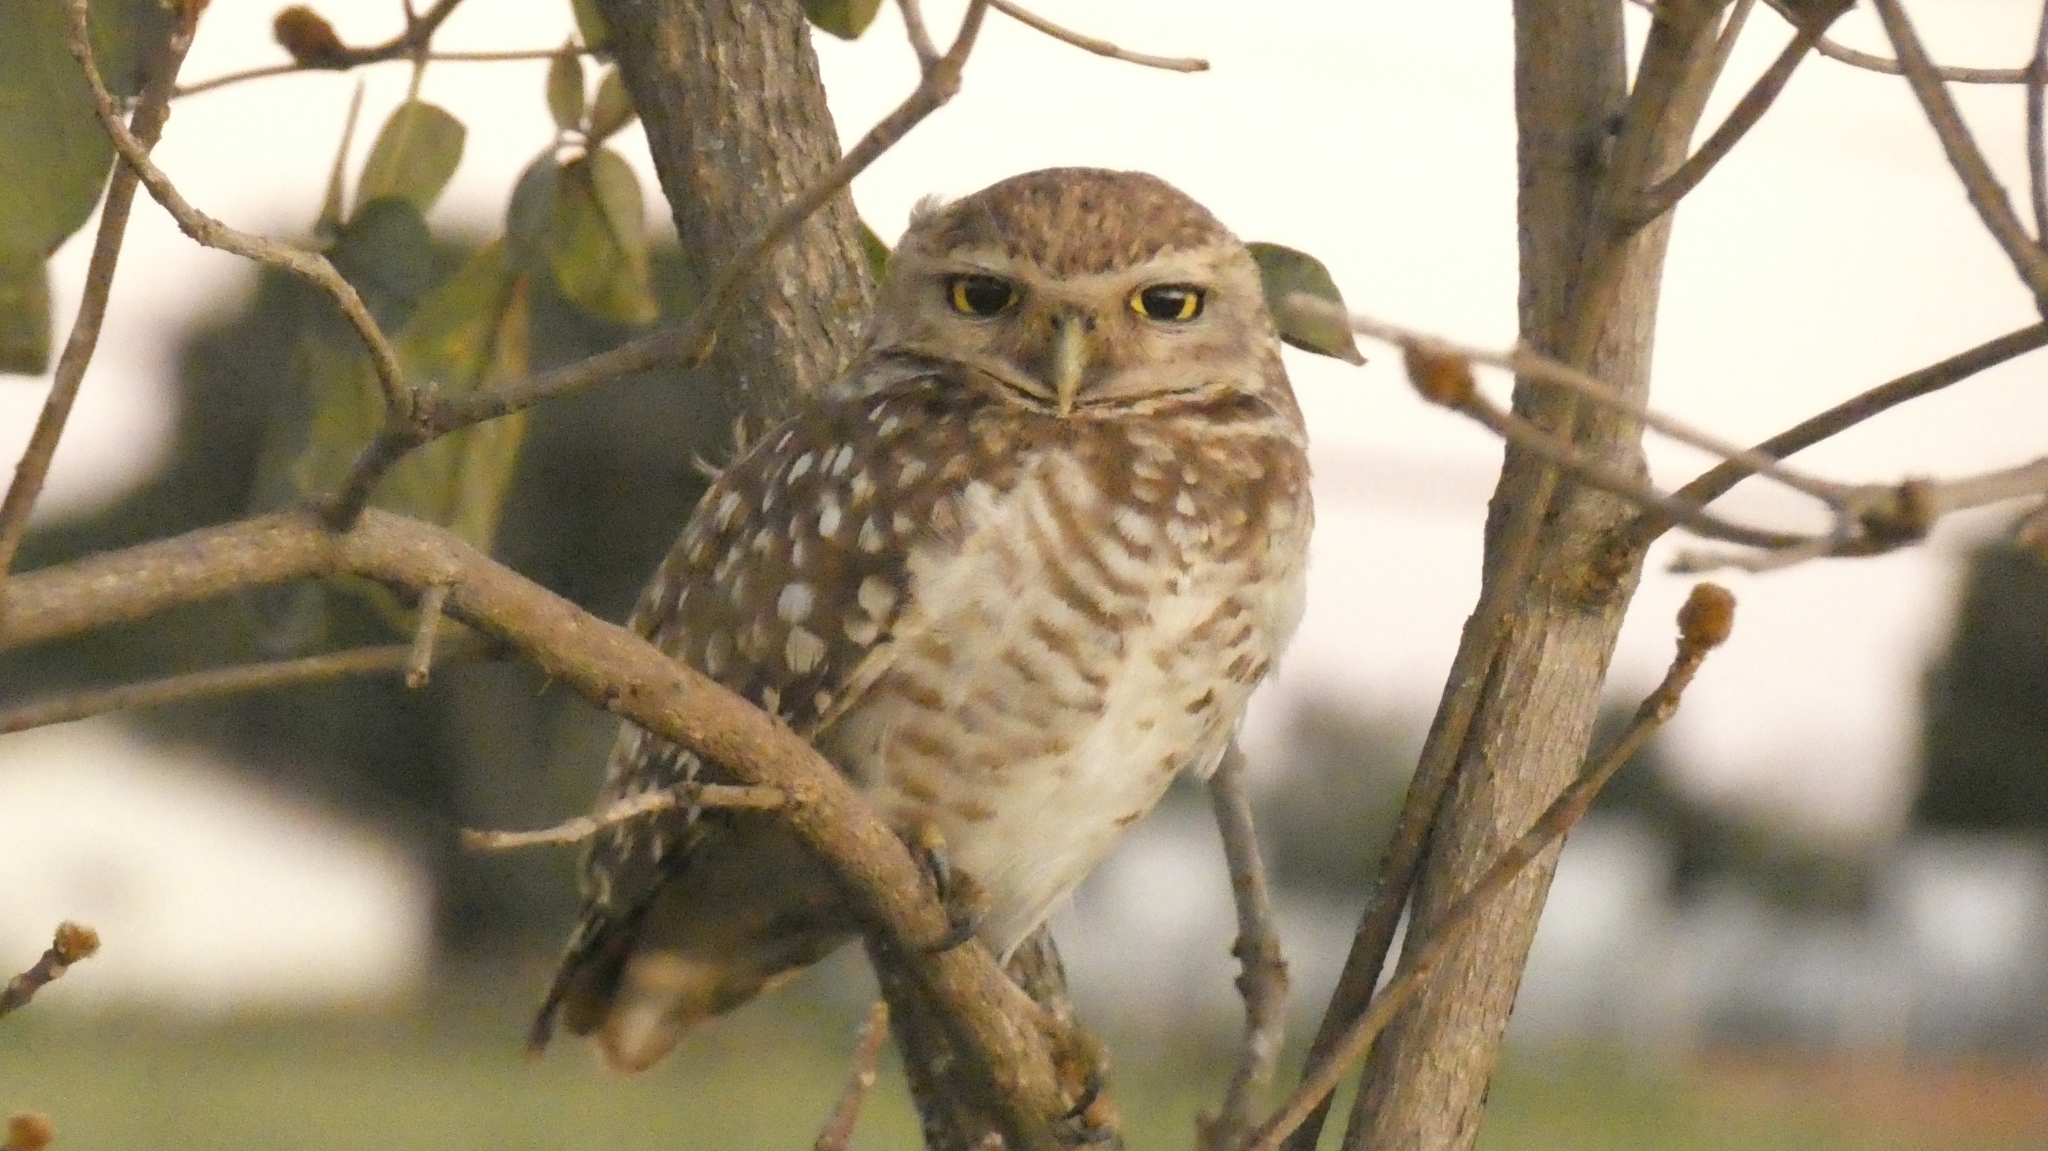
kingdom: Animalia
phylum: Chordata
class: Aves
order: Strigiformes
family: Strigidae
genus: Athene
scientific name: Athene cunicularia
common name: Burrowing owl
